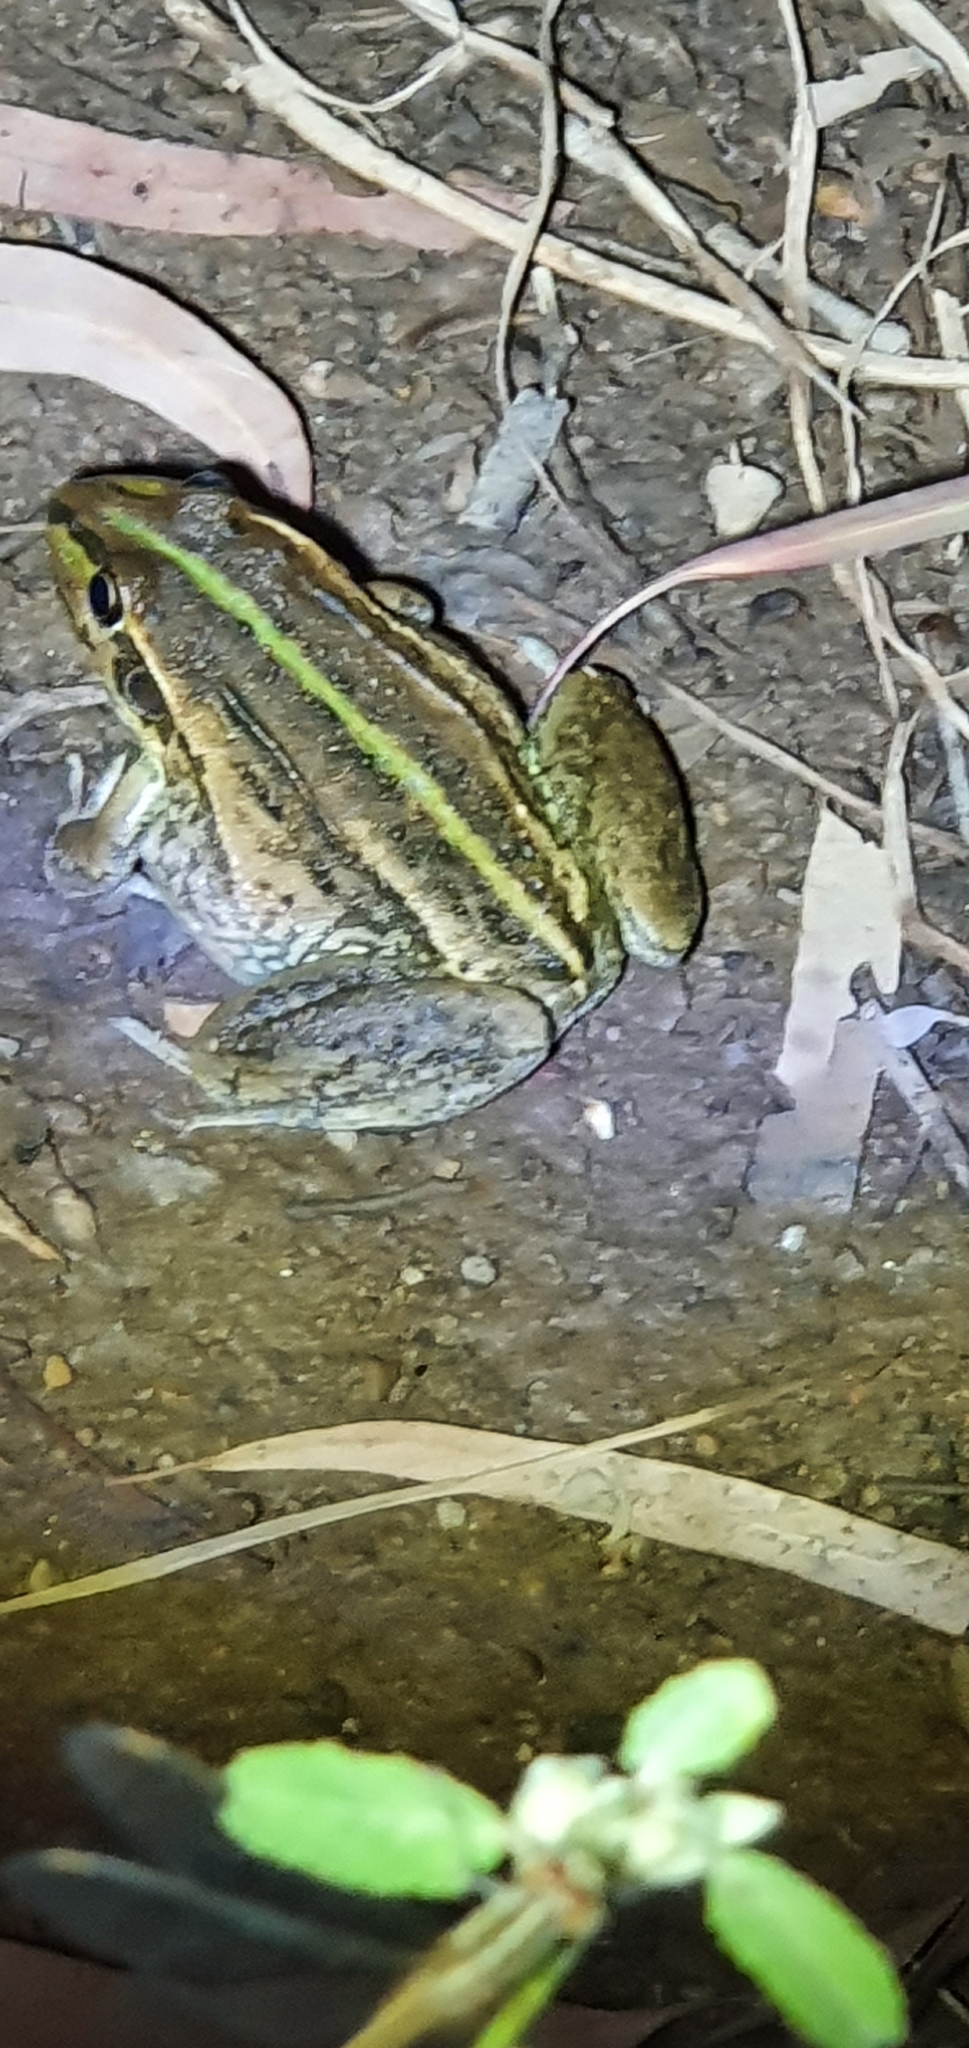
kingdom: Animalia
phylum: Chordata
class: Amphibia
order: Anura
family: Pelodryadidae
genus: Ranoidea
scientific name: Ranoidea alboguttata
